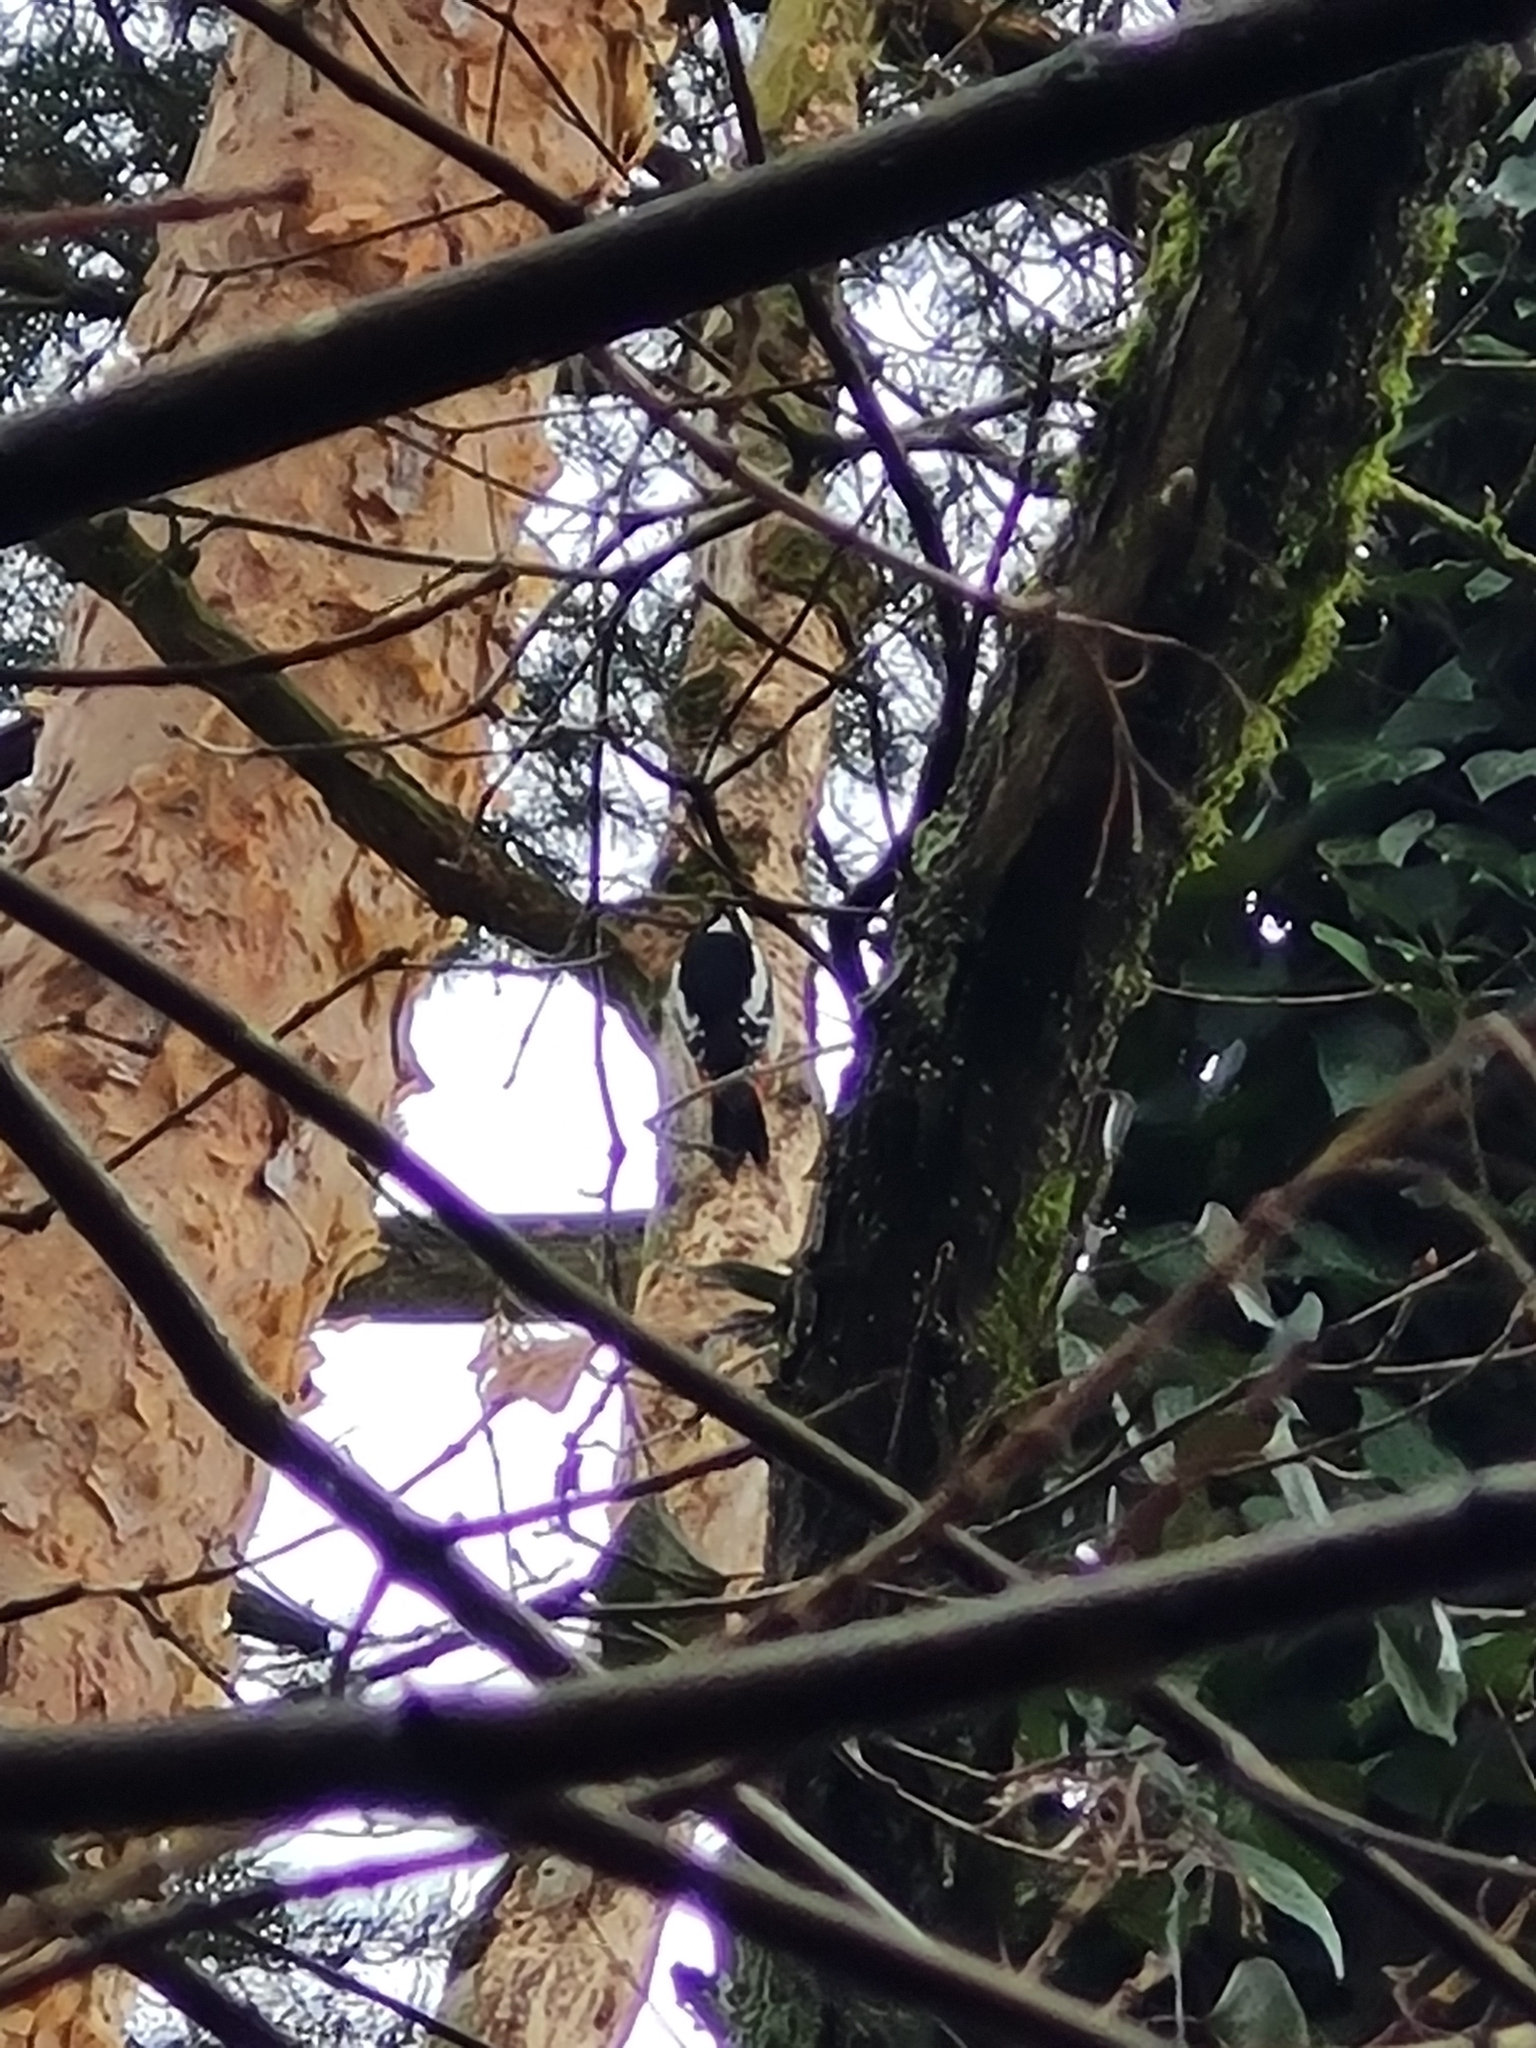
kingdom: Animalia
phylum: Chordata
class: Aves
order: Piciformes
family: Picidae
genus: Dendrocopos
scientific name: Dendrocopos major
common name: Great spotted woodpecker
